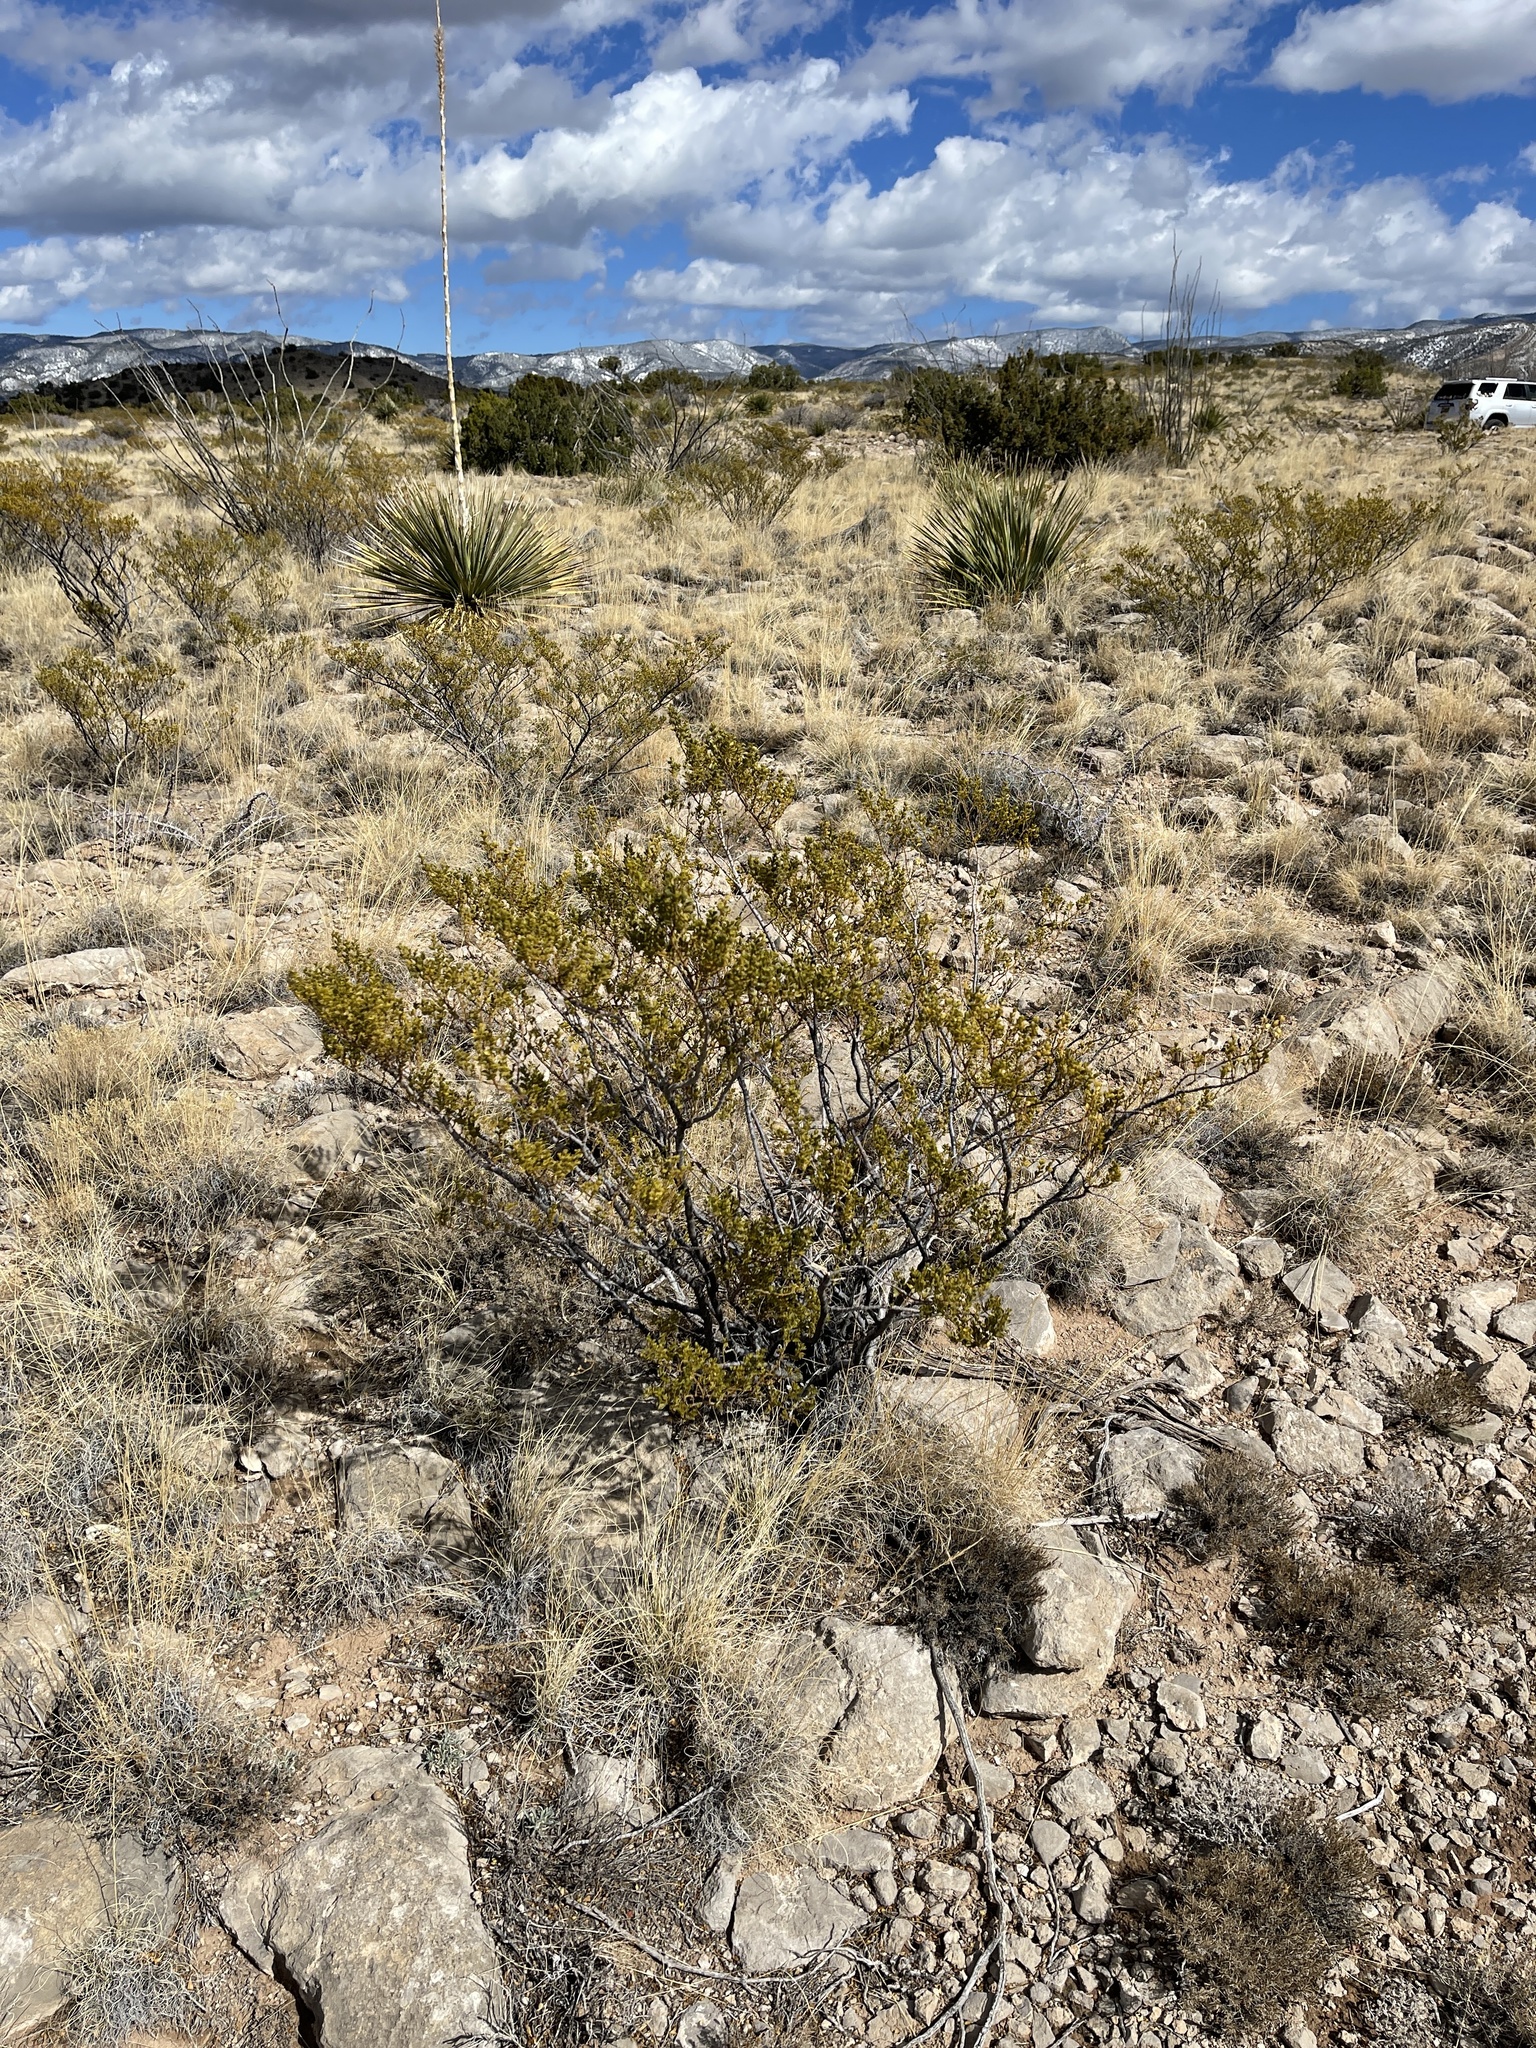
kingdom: Plantae
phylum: Tracheophyta
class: Magnoliopsida
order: Zygophyllales
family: Zygophyllaceae
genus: Larrea
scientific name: Larrea tridentata
